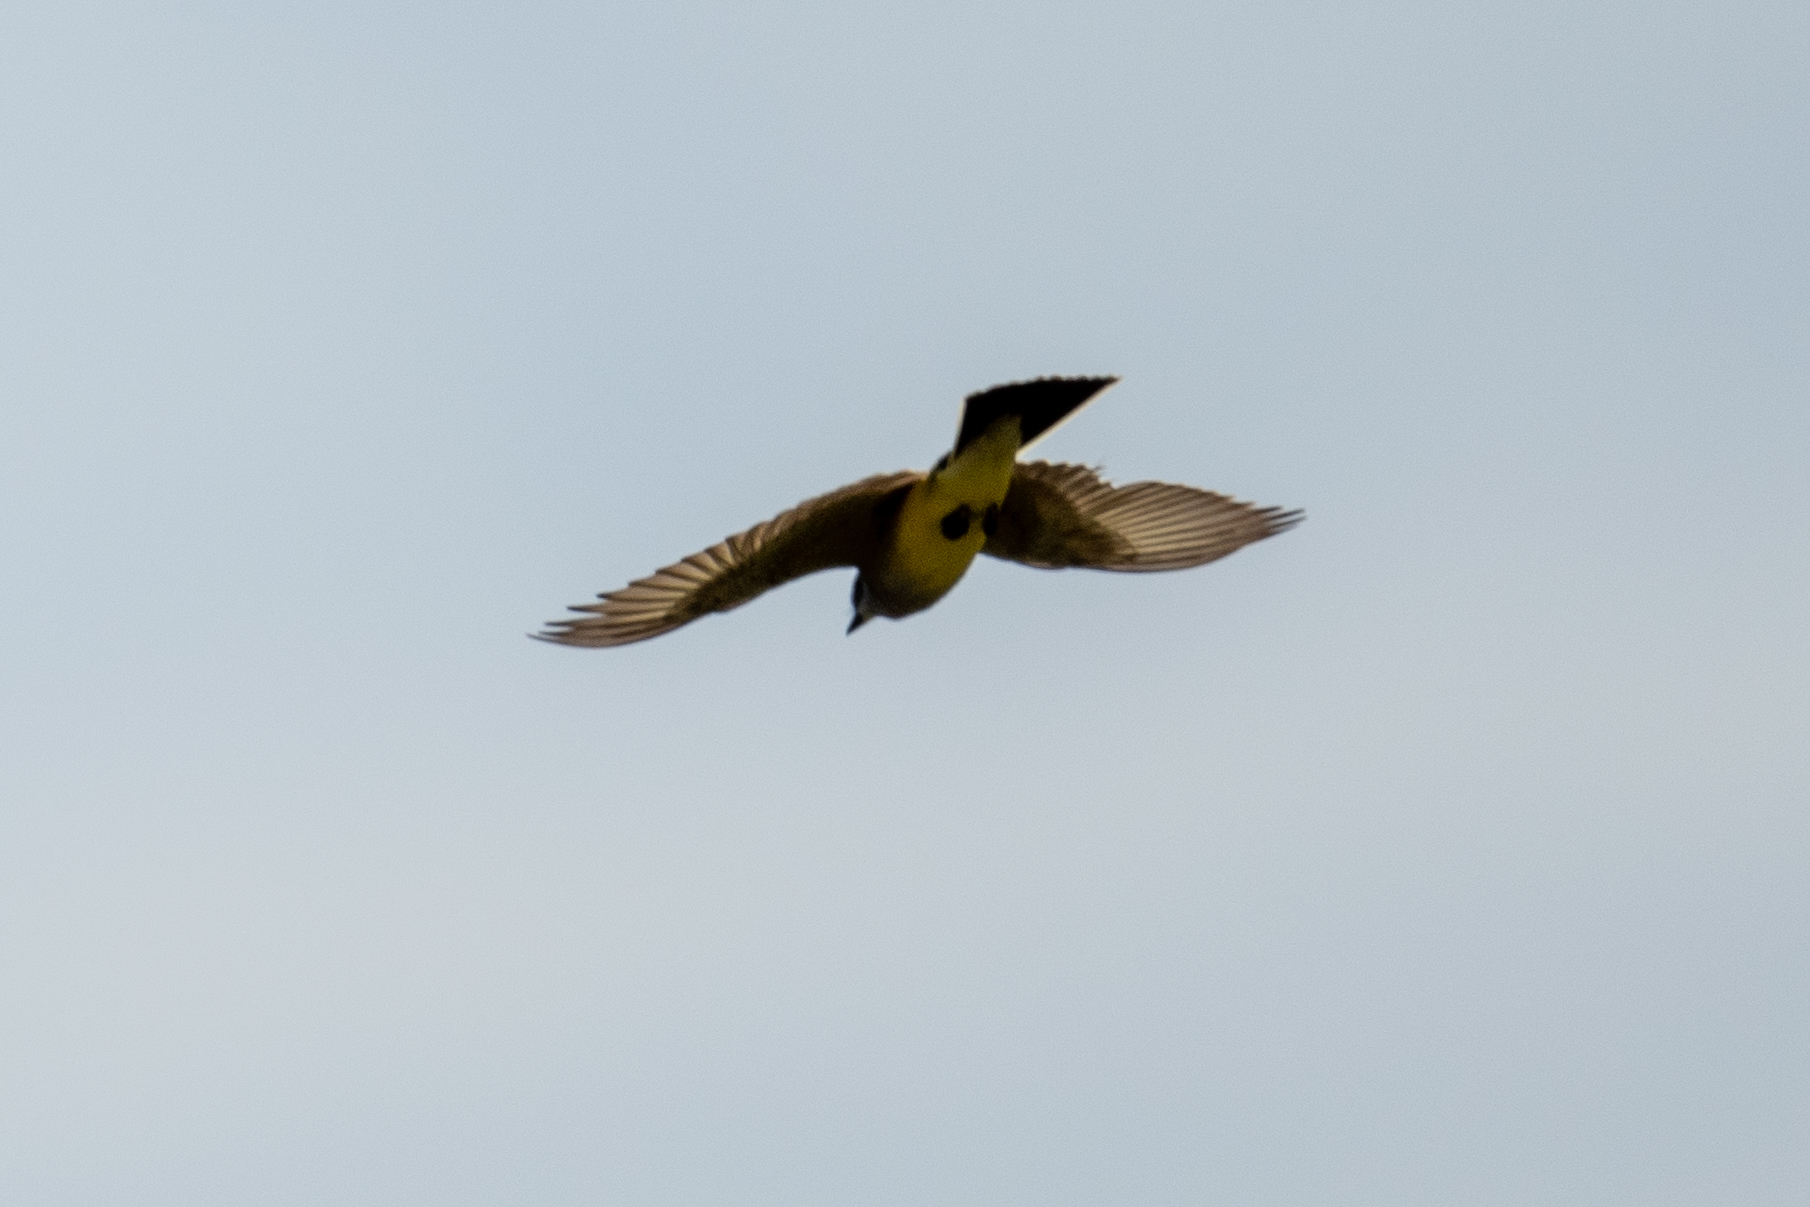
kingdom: Animalia
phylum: Chordata
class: Aves
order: Passeriformes
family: Tyrannidae
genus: Tyrannus
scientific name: Tyrannus verticalis
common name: Western kingbird
